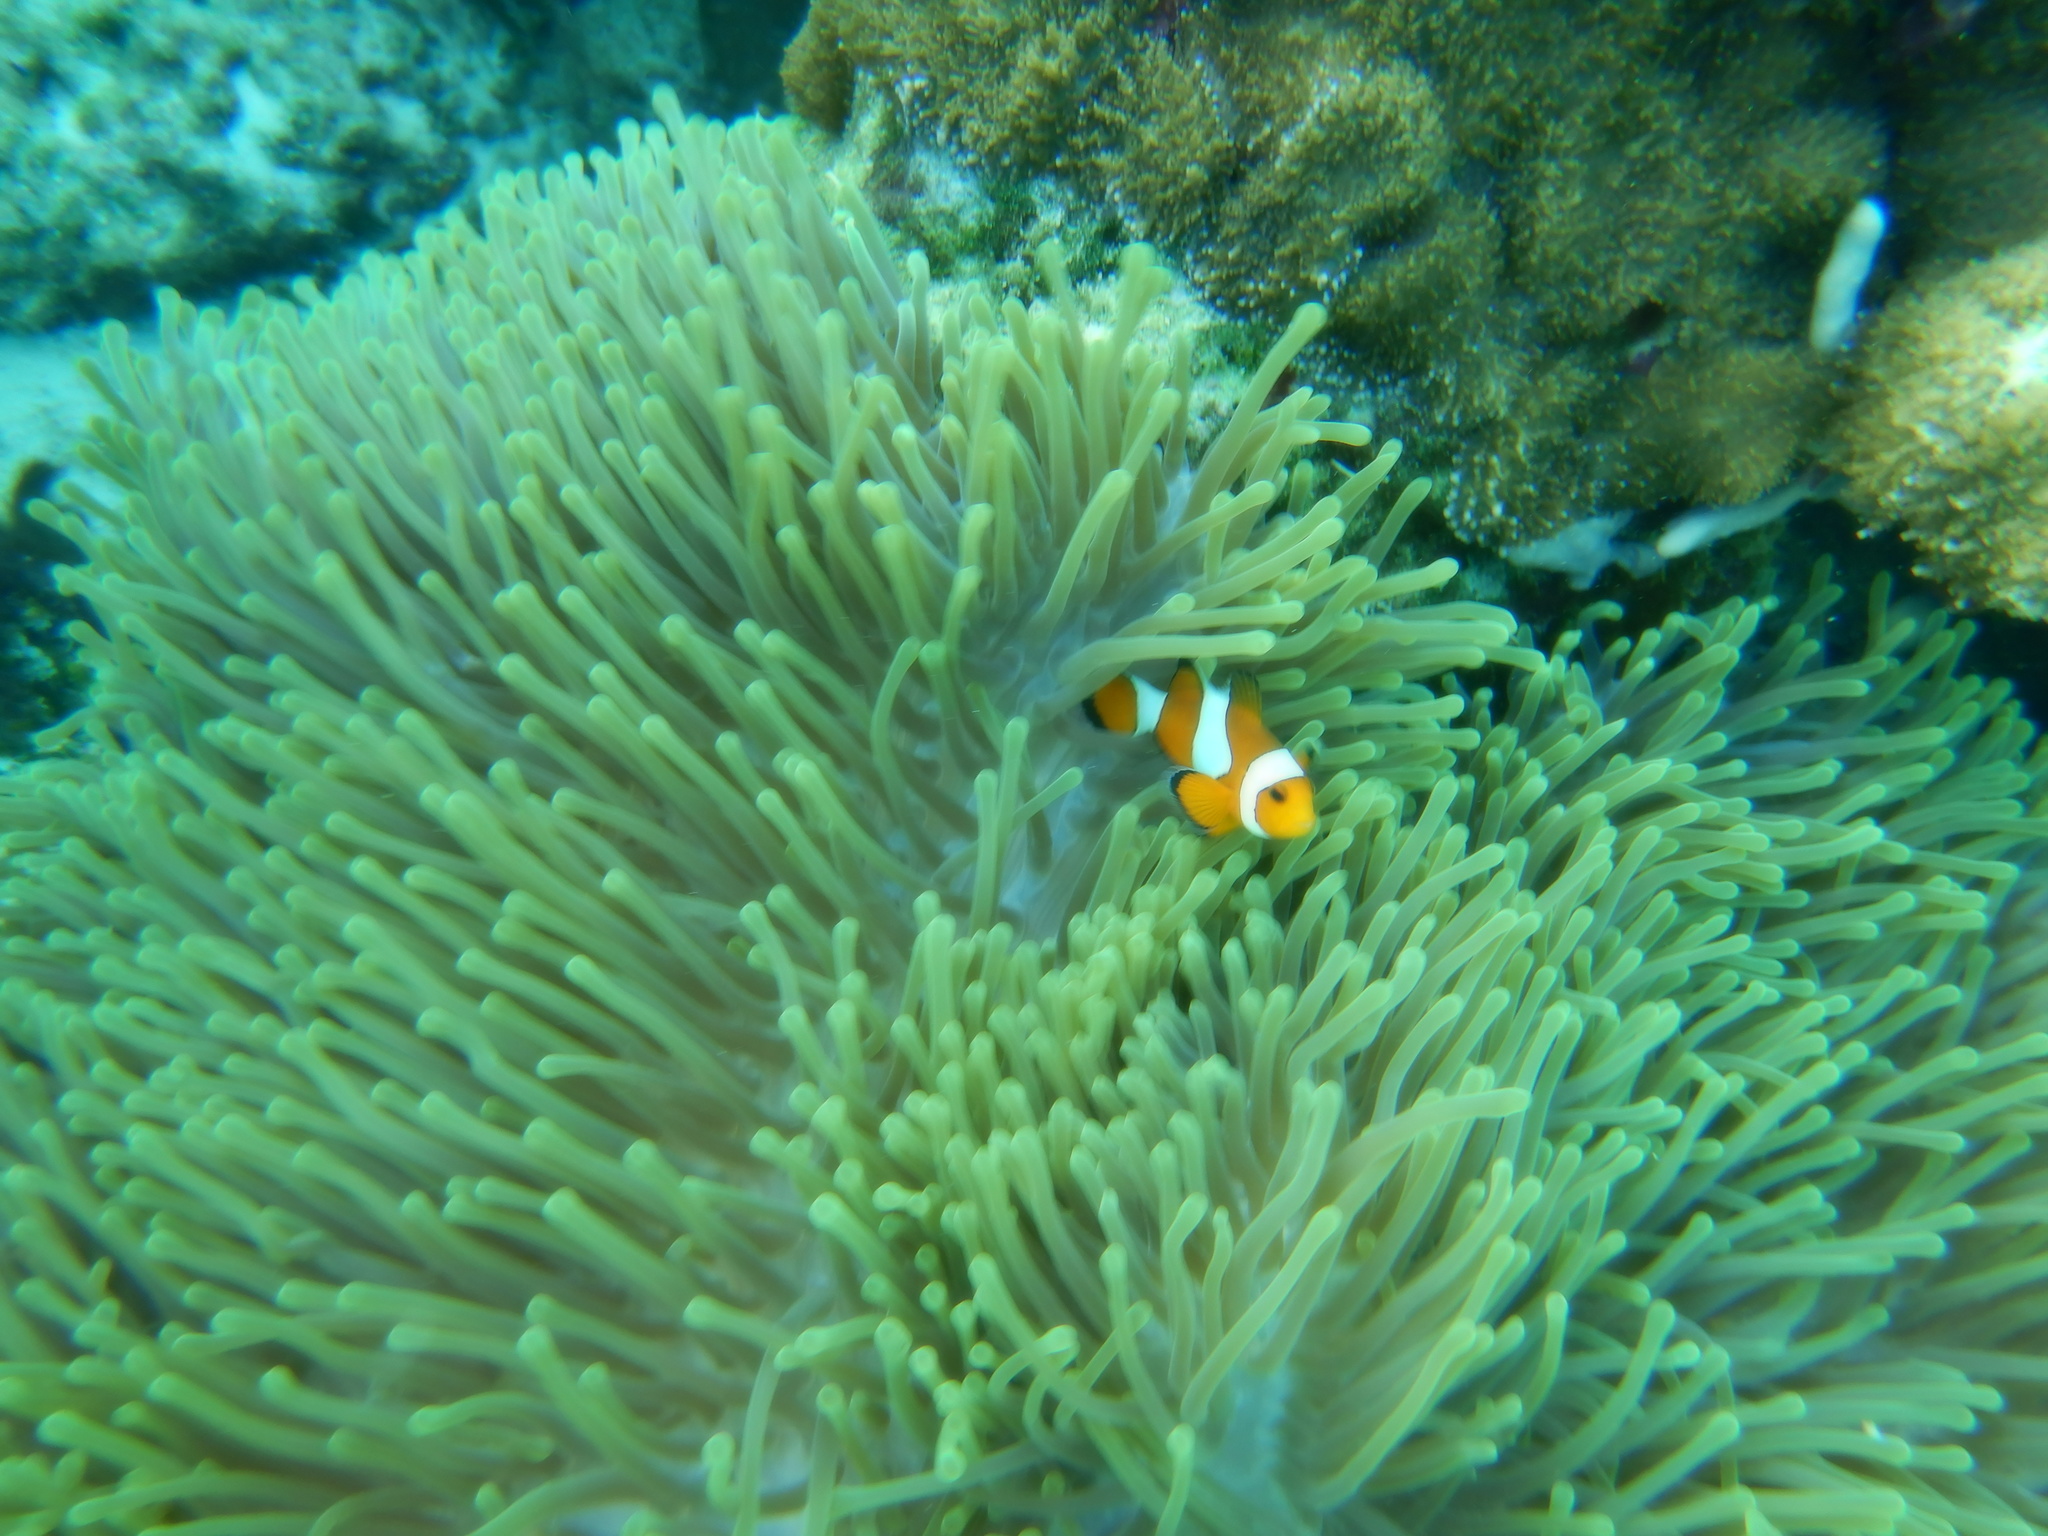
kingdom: Animalia
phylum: Chordata
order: Perciformes
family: Pomacentridae
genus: Amphiprion
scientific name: Amphiprion ocellaris
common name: Clown anemonefish
